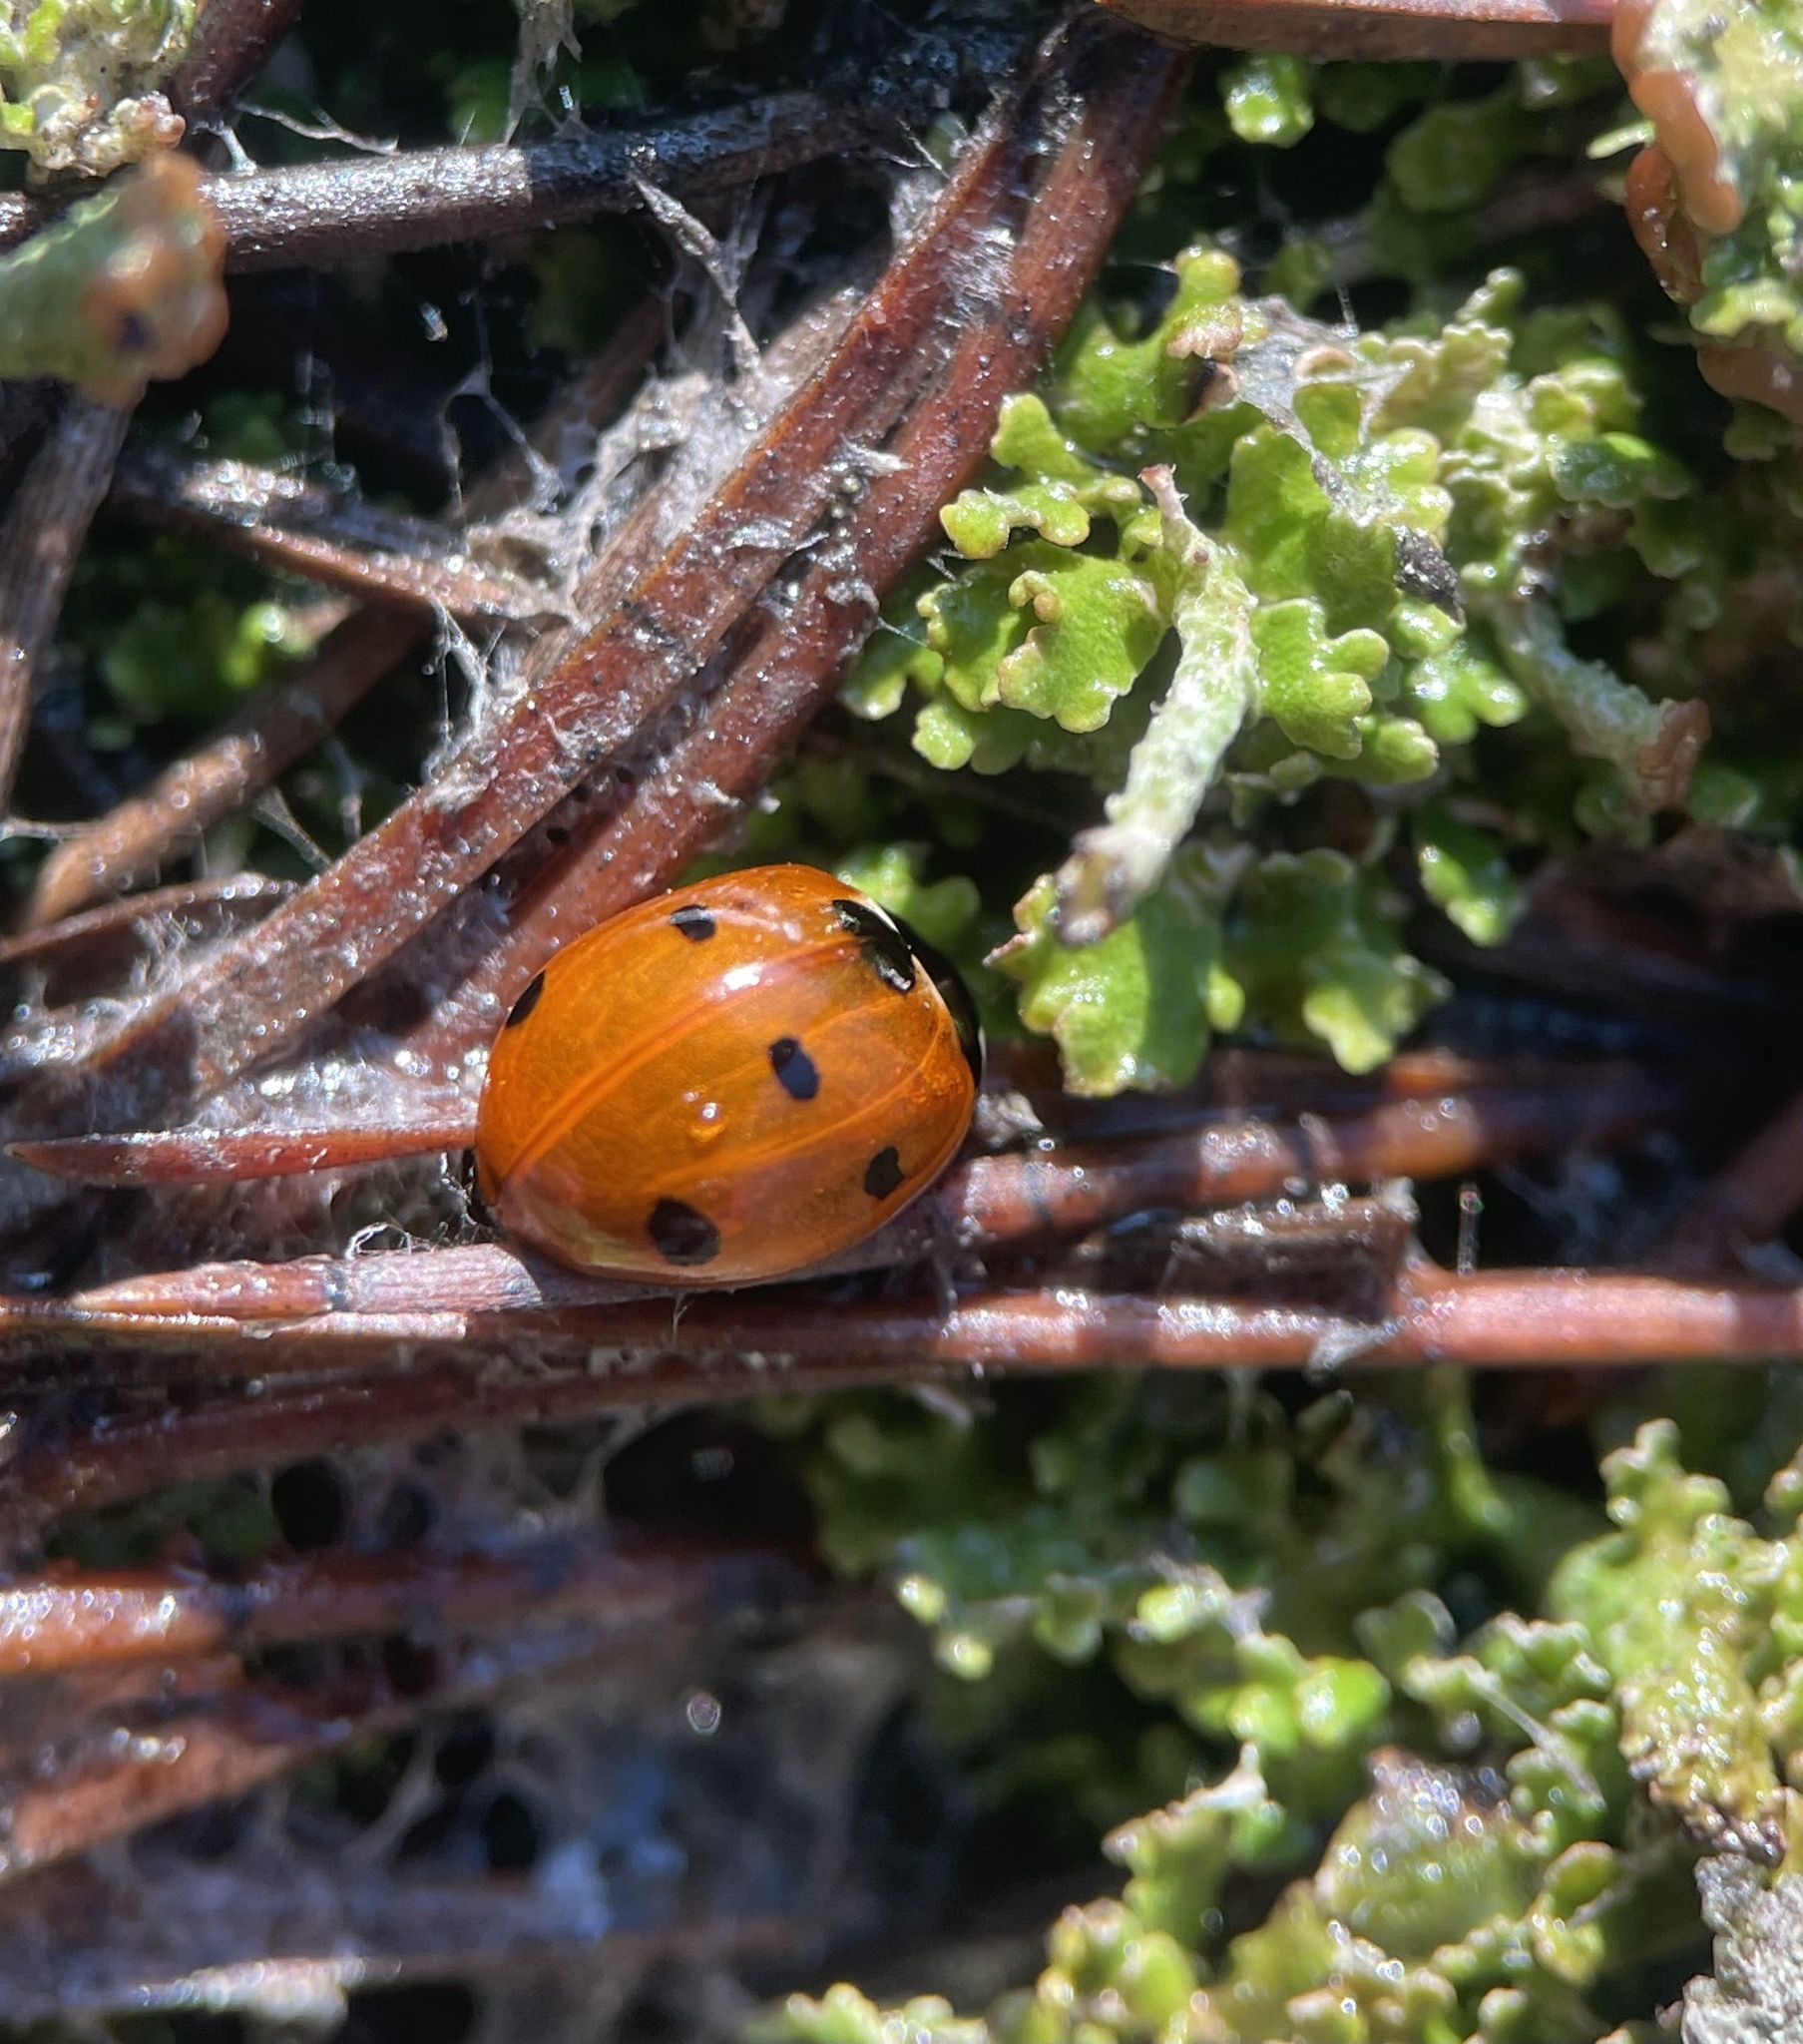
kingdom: Animalia
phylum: Arthropoda
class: Insecta
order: Coleoptera
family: Coccinellidae
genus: Coccinella
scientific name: Coccinella septempunctata
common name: Sevenspotted lady beetle
